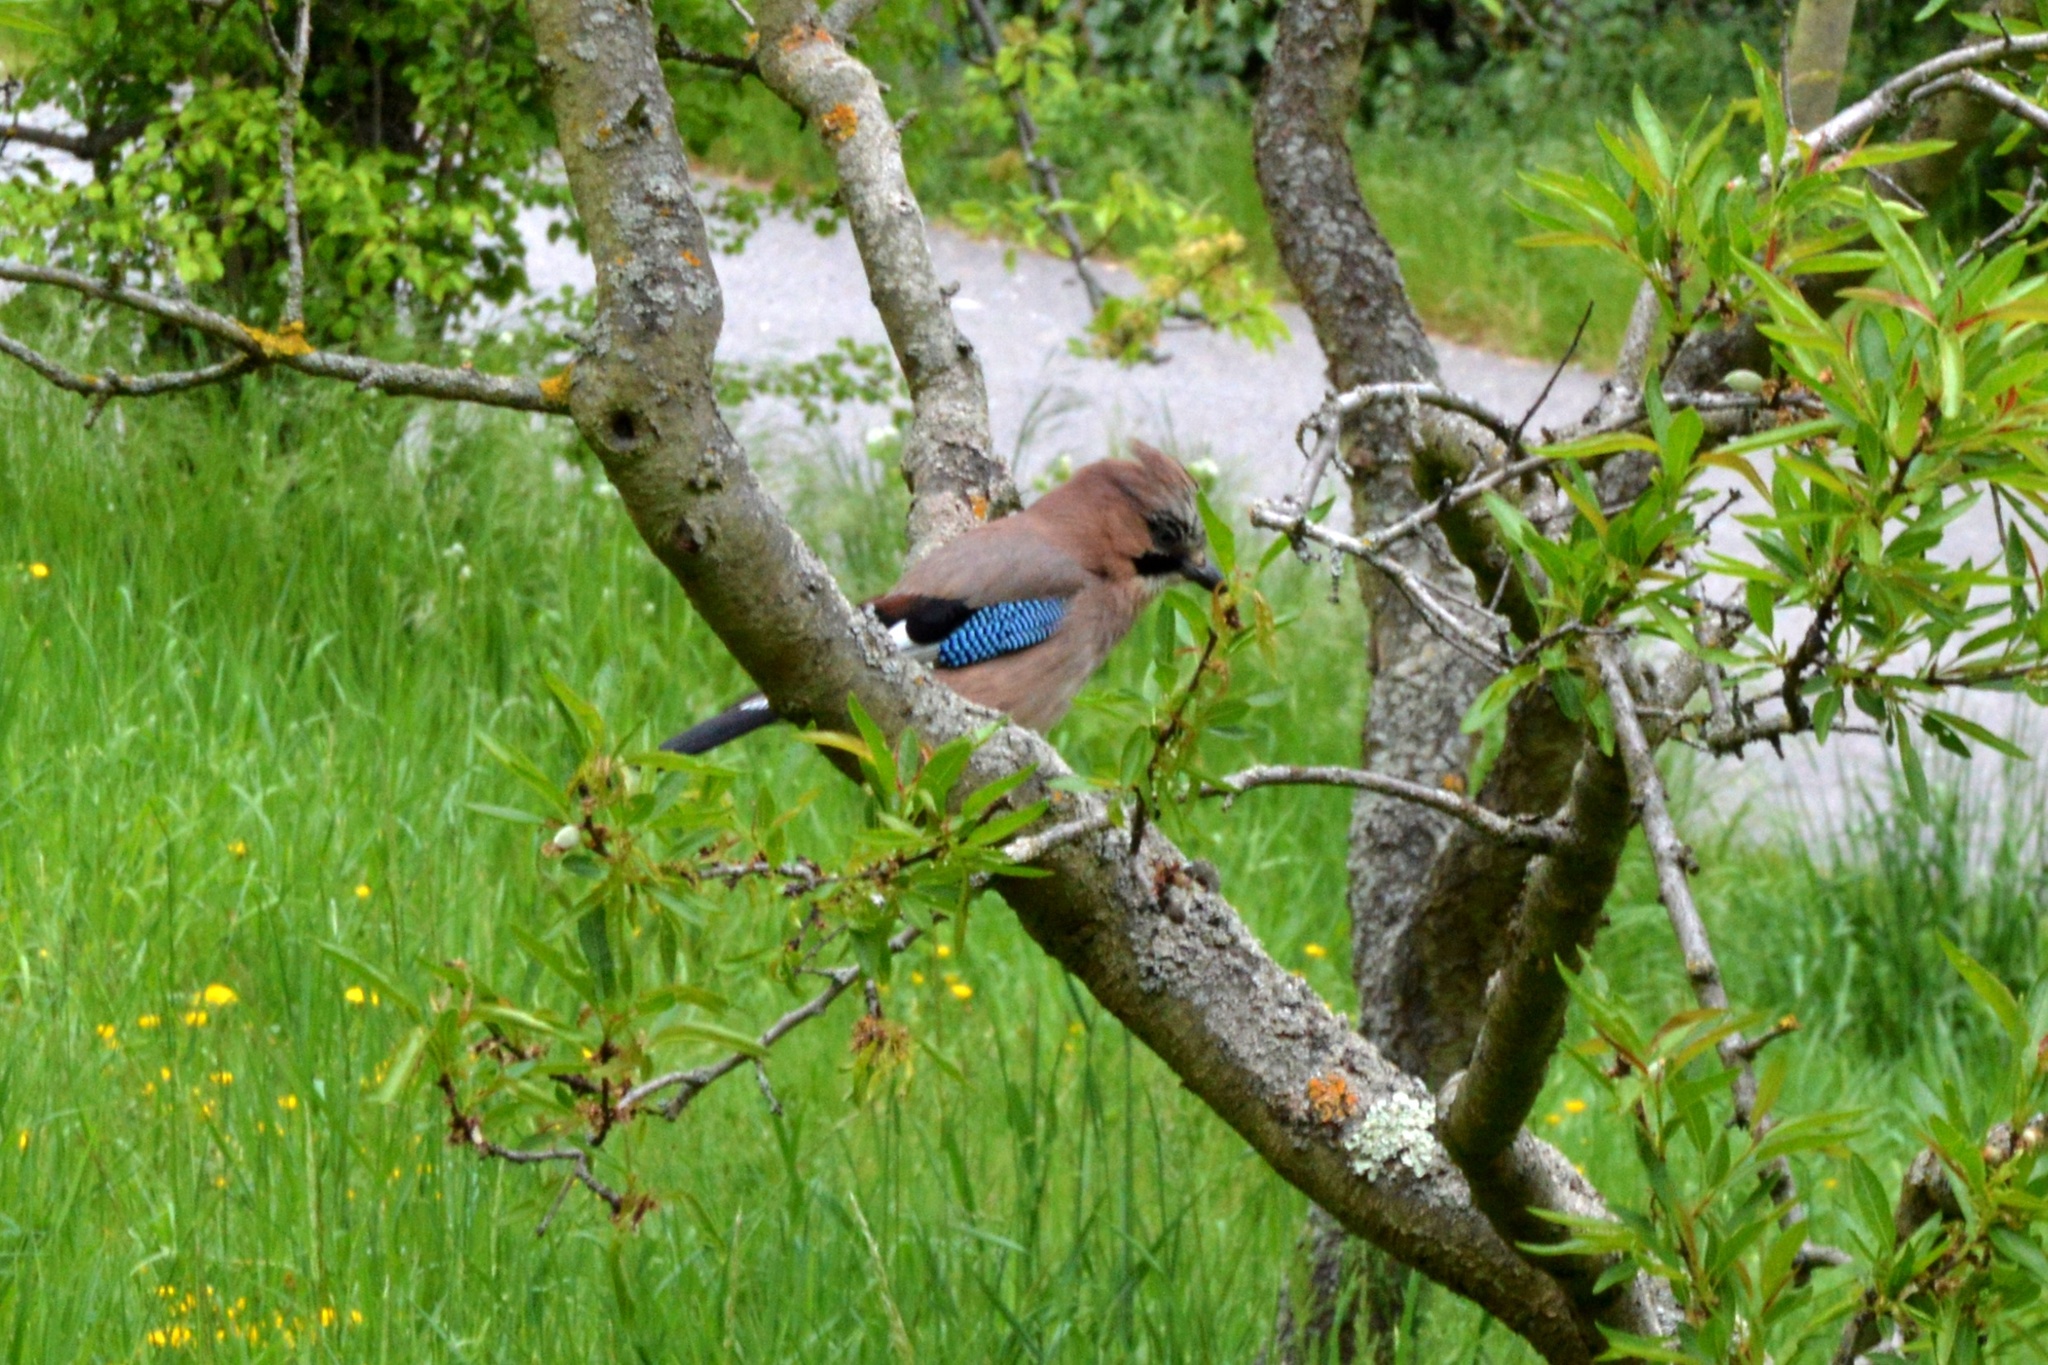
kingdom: Animalia
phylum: Chordata
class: Aves
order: Passeriformes
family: Corvidae
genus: Garrulus
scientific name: Garrulus glandarius
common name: Eurasian jay
